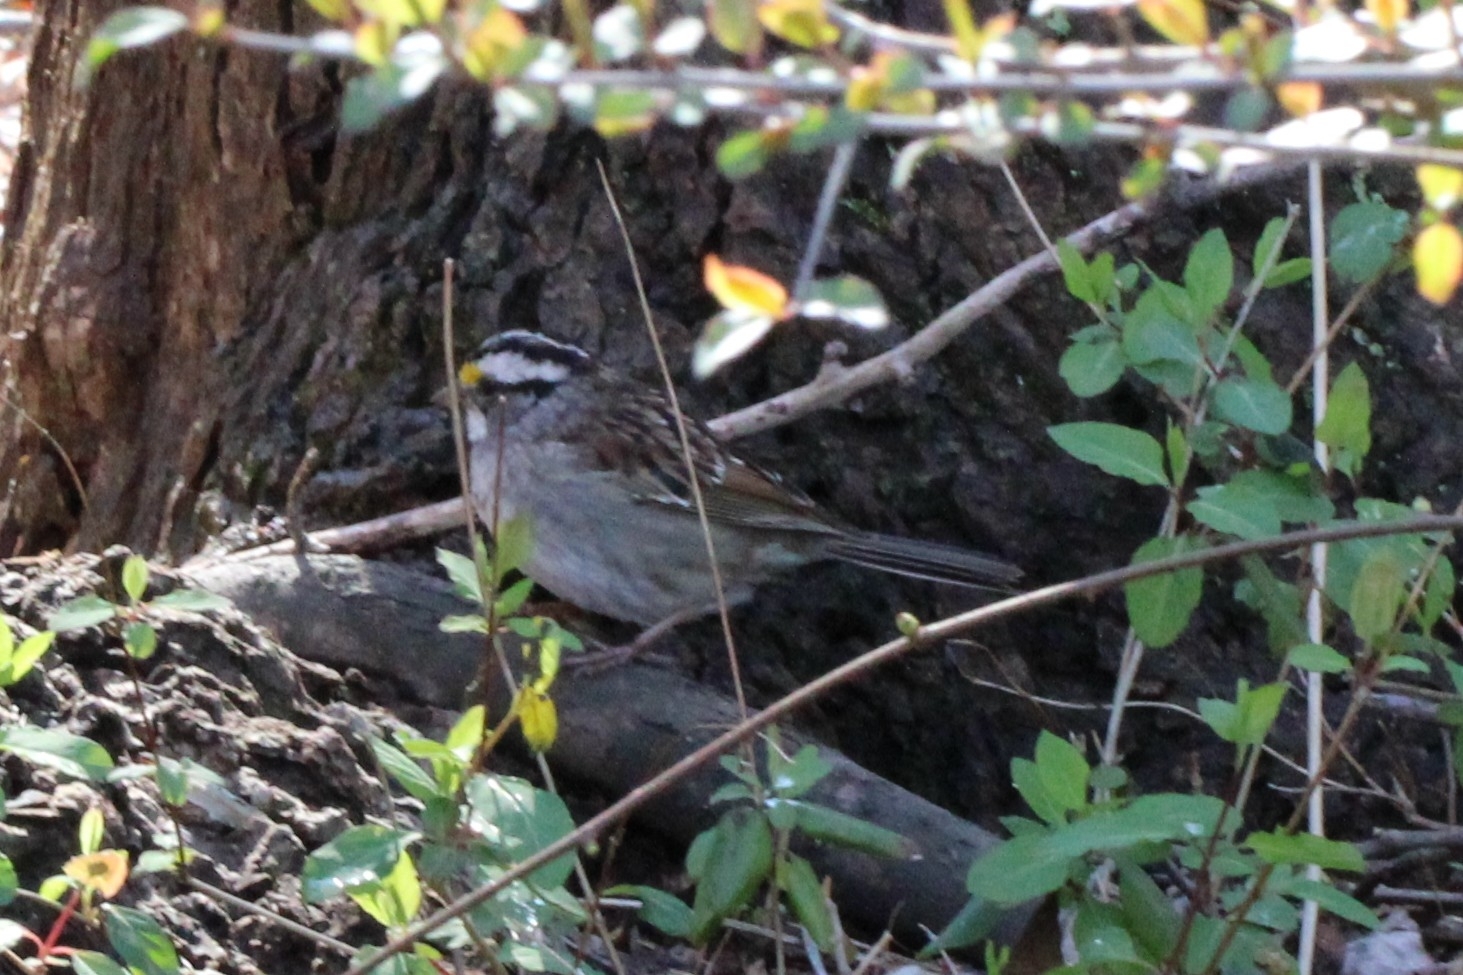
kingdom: Animalia
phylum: Chordata
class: Aves
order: Passeriformes
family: Passerellidae
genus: Zonotrichia
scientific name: Zonotrichia albicollis
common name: White-throated sparrow
